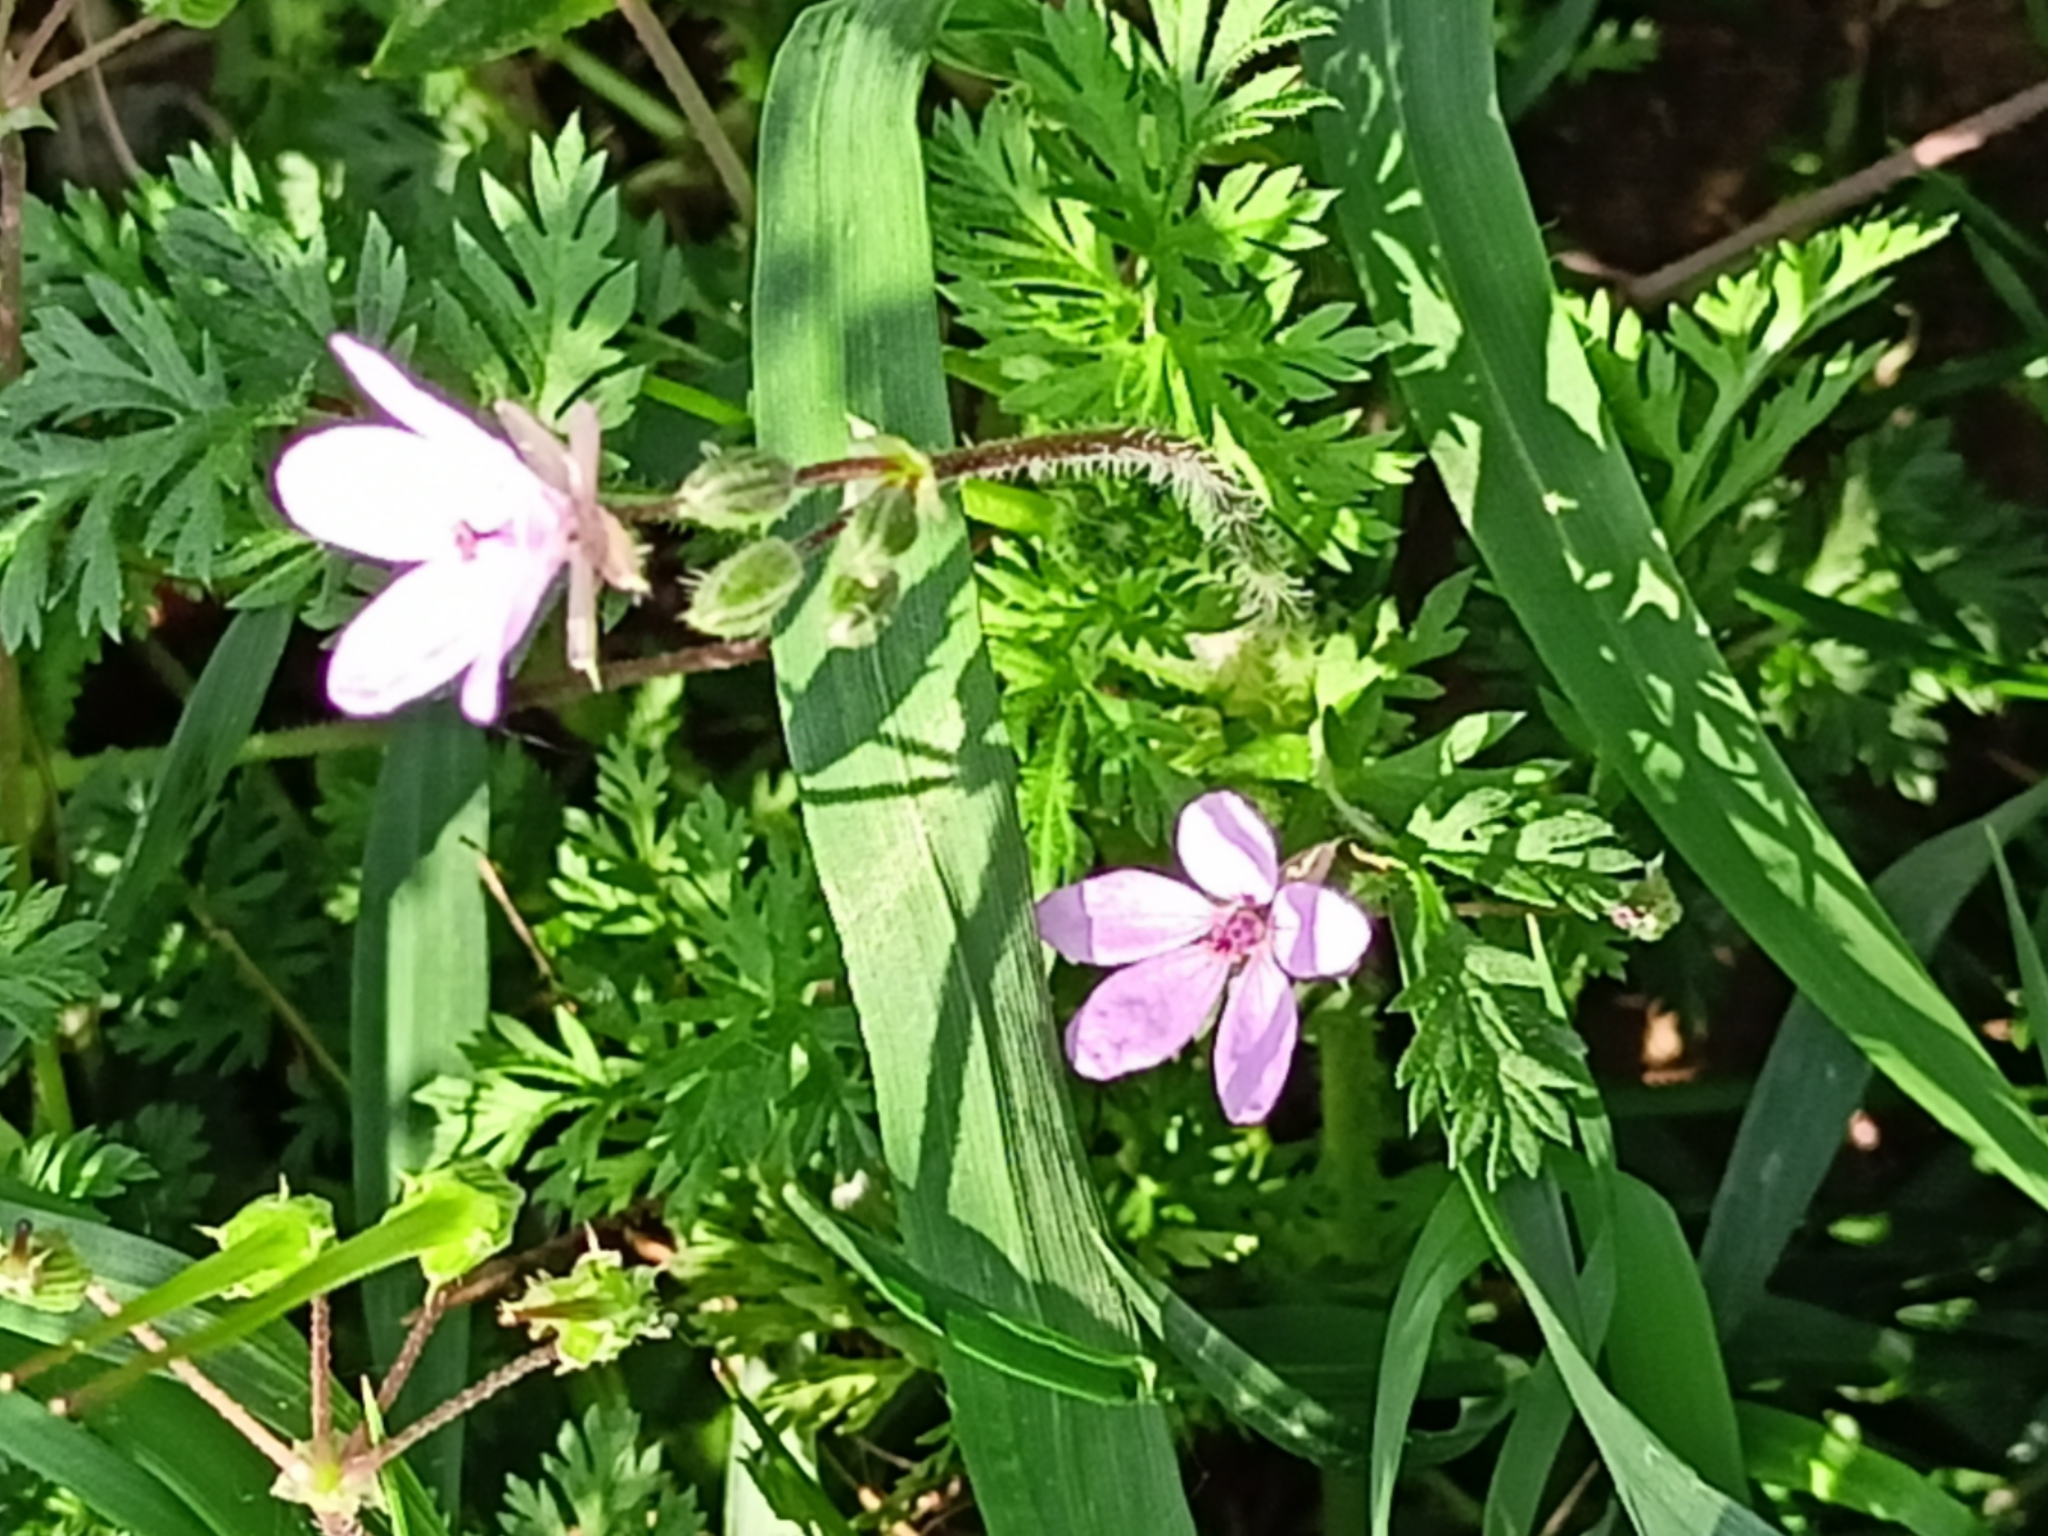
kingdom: Plantae
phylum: Tracheophyta
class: Magnoliopsida
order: Geraniales
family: Geraniaceae
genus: Erodium
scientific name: Erodium cicutarium
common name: Common stork's-bill
